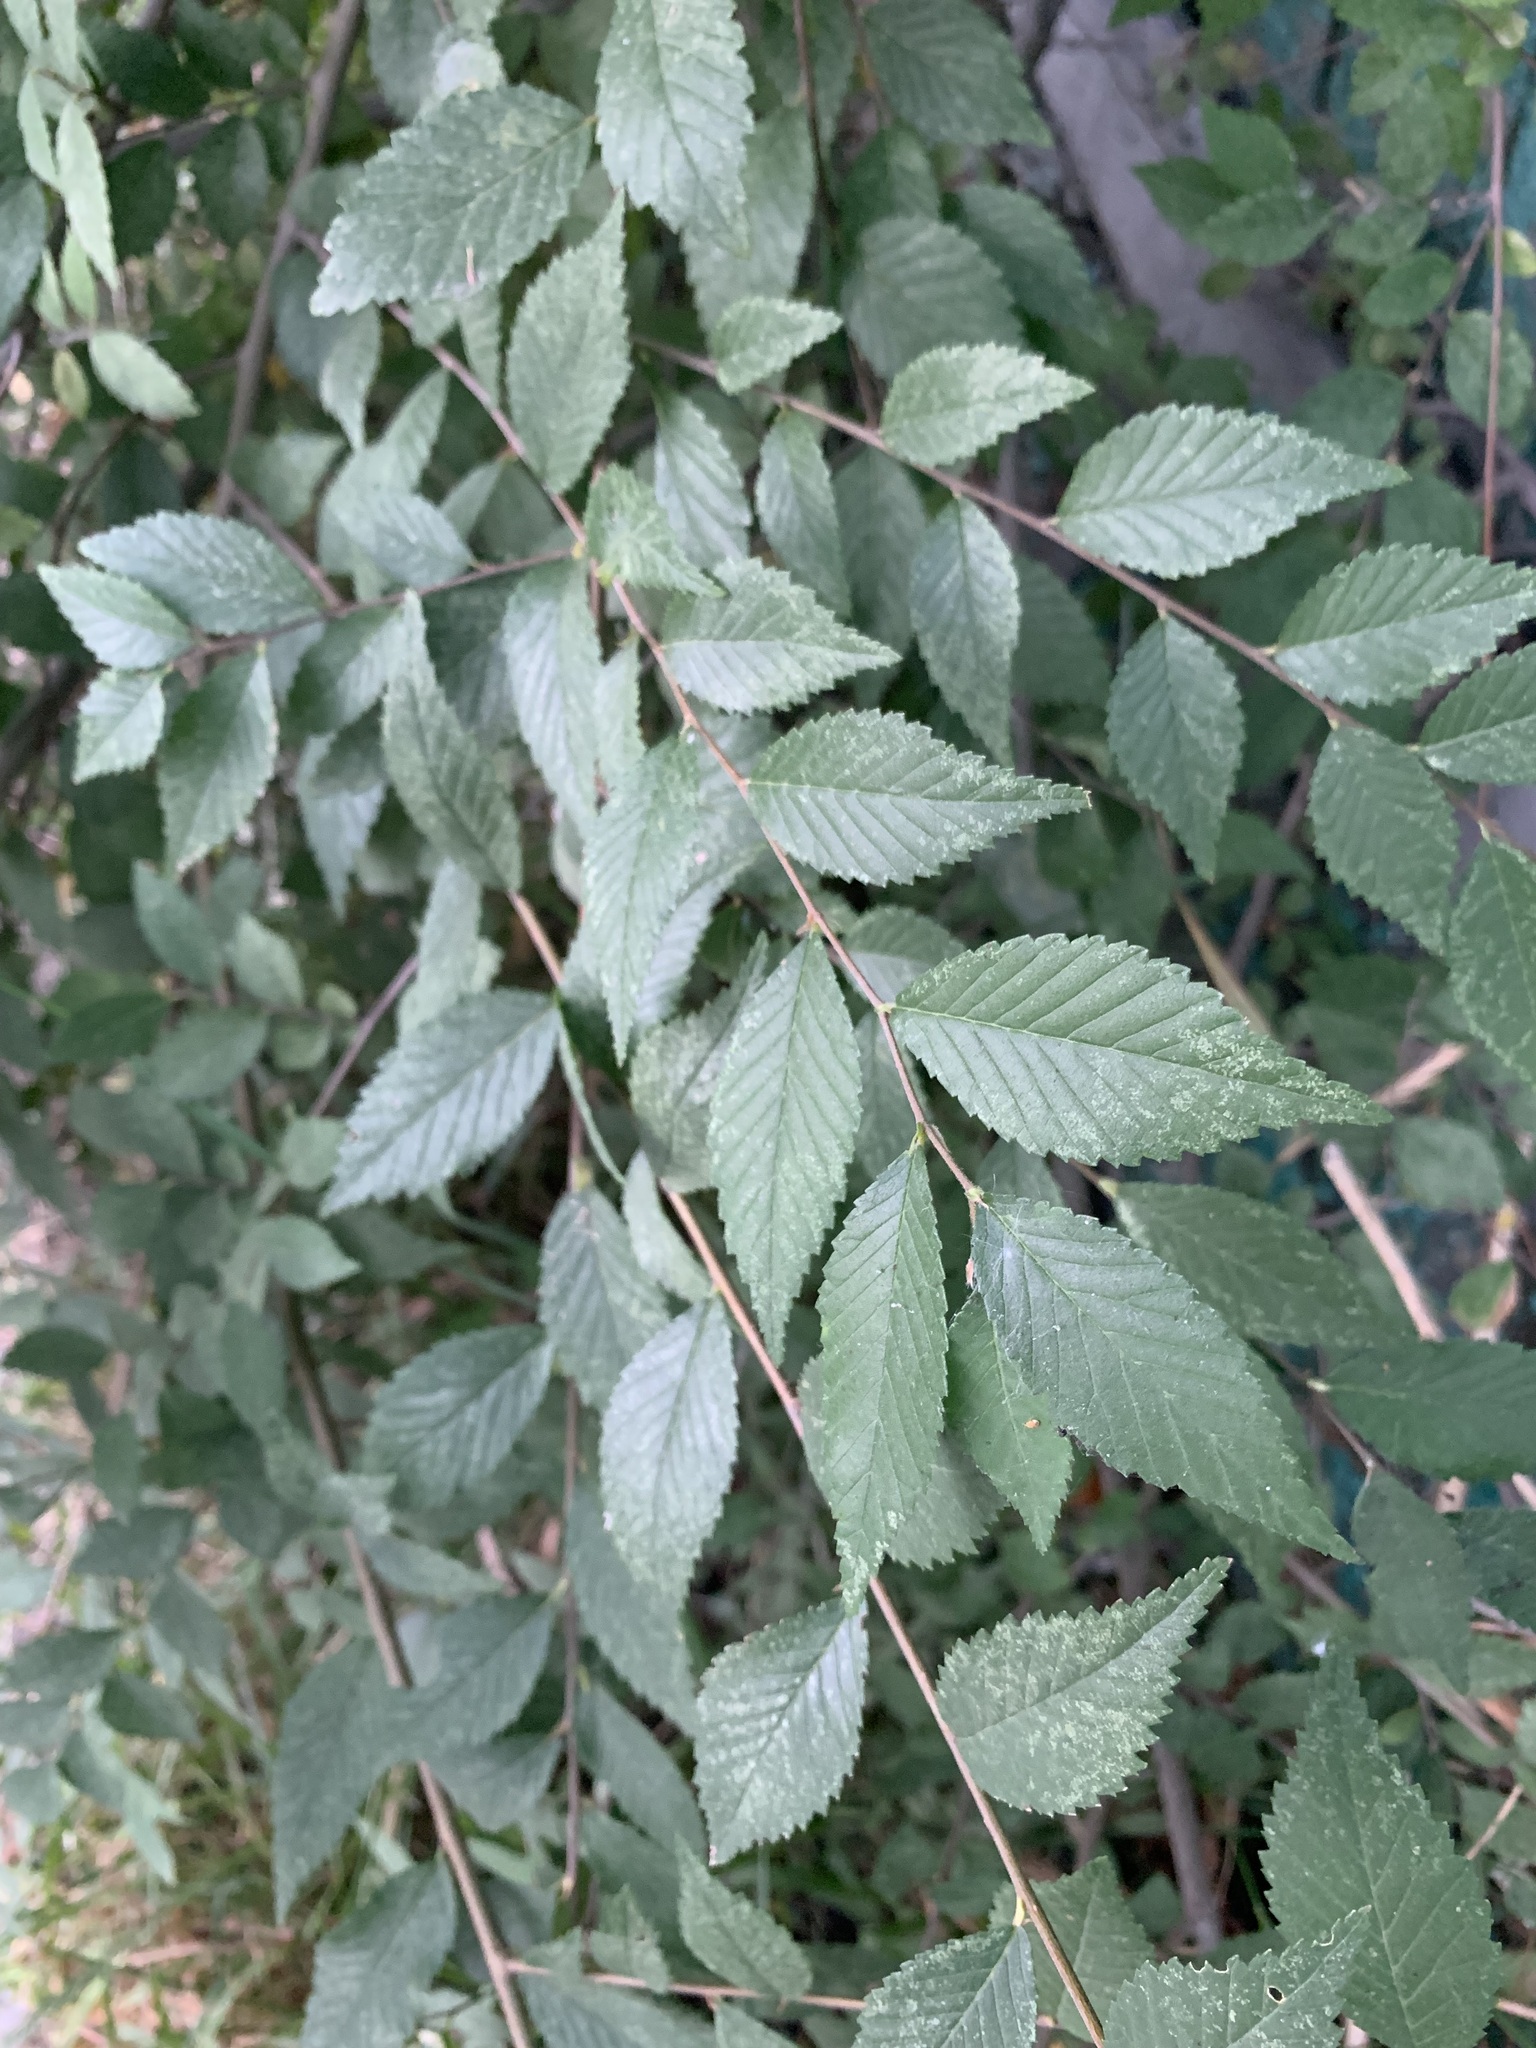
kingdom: Plantae
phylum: Tracheophyta
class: Magnoliopsida
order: Rosales
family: Ulmaceae
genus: Ulmus
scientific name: Ulmus pumila
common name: Siberian elm
